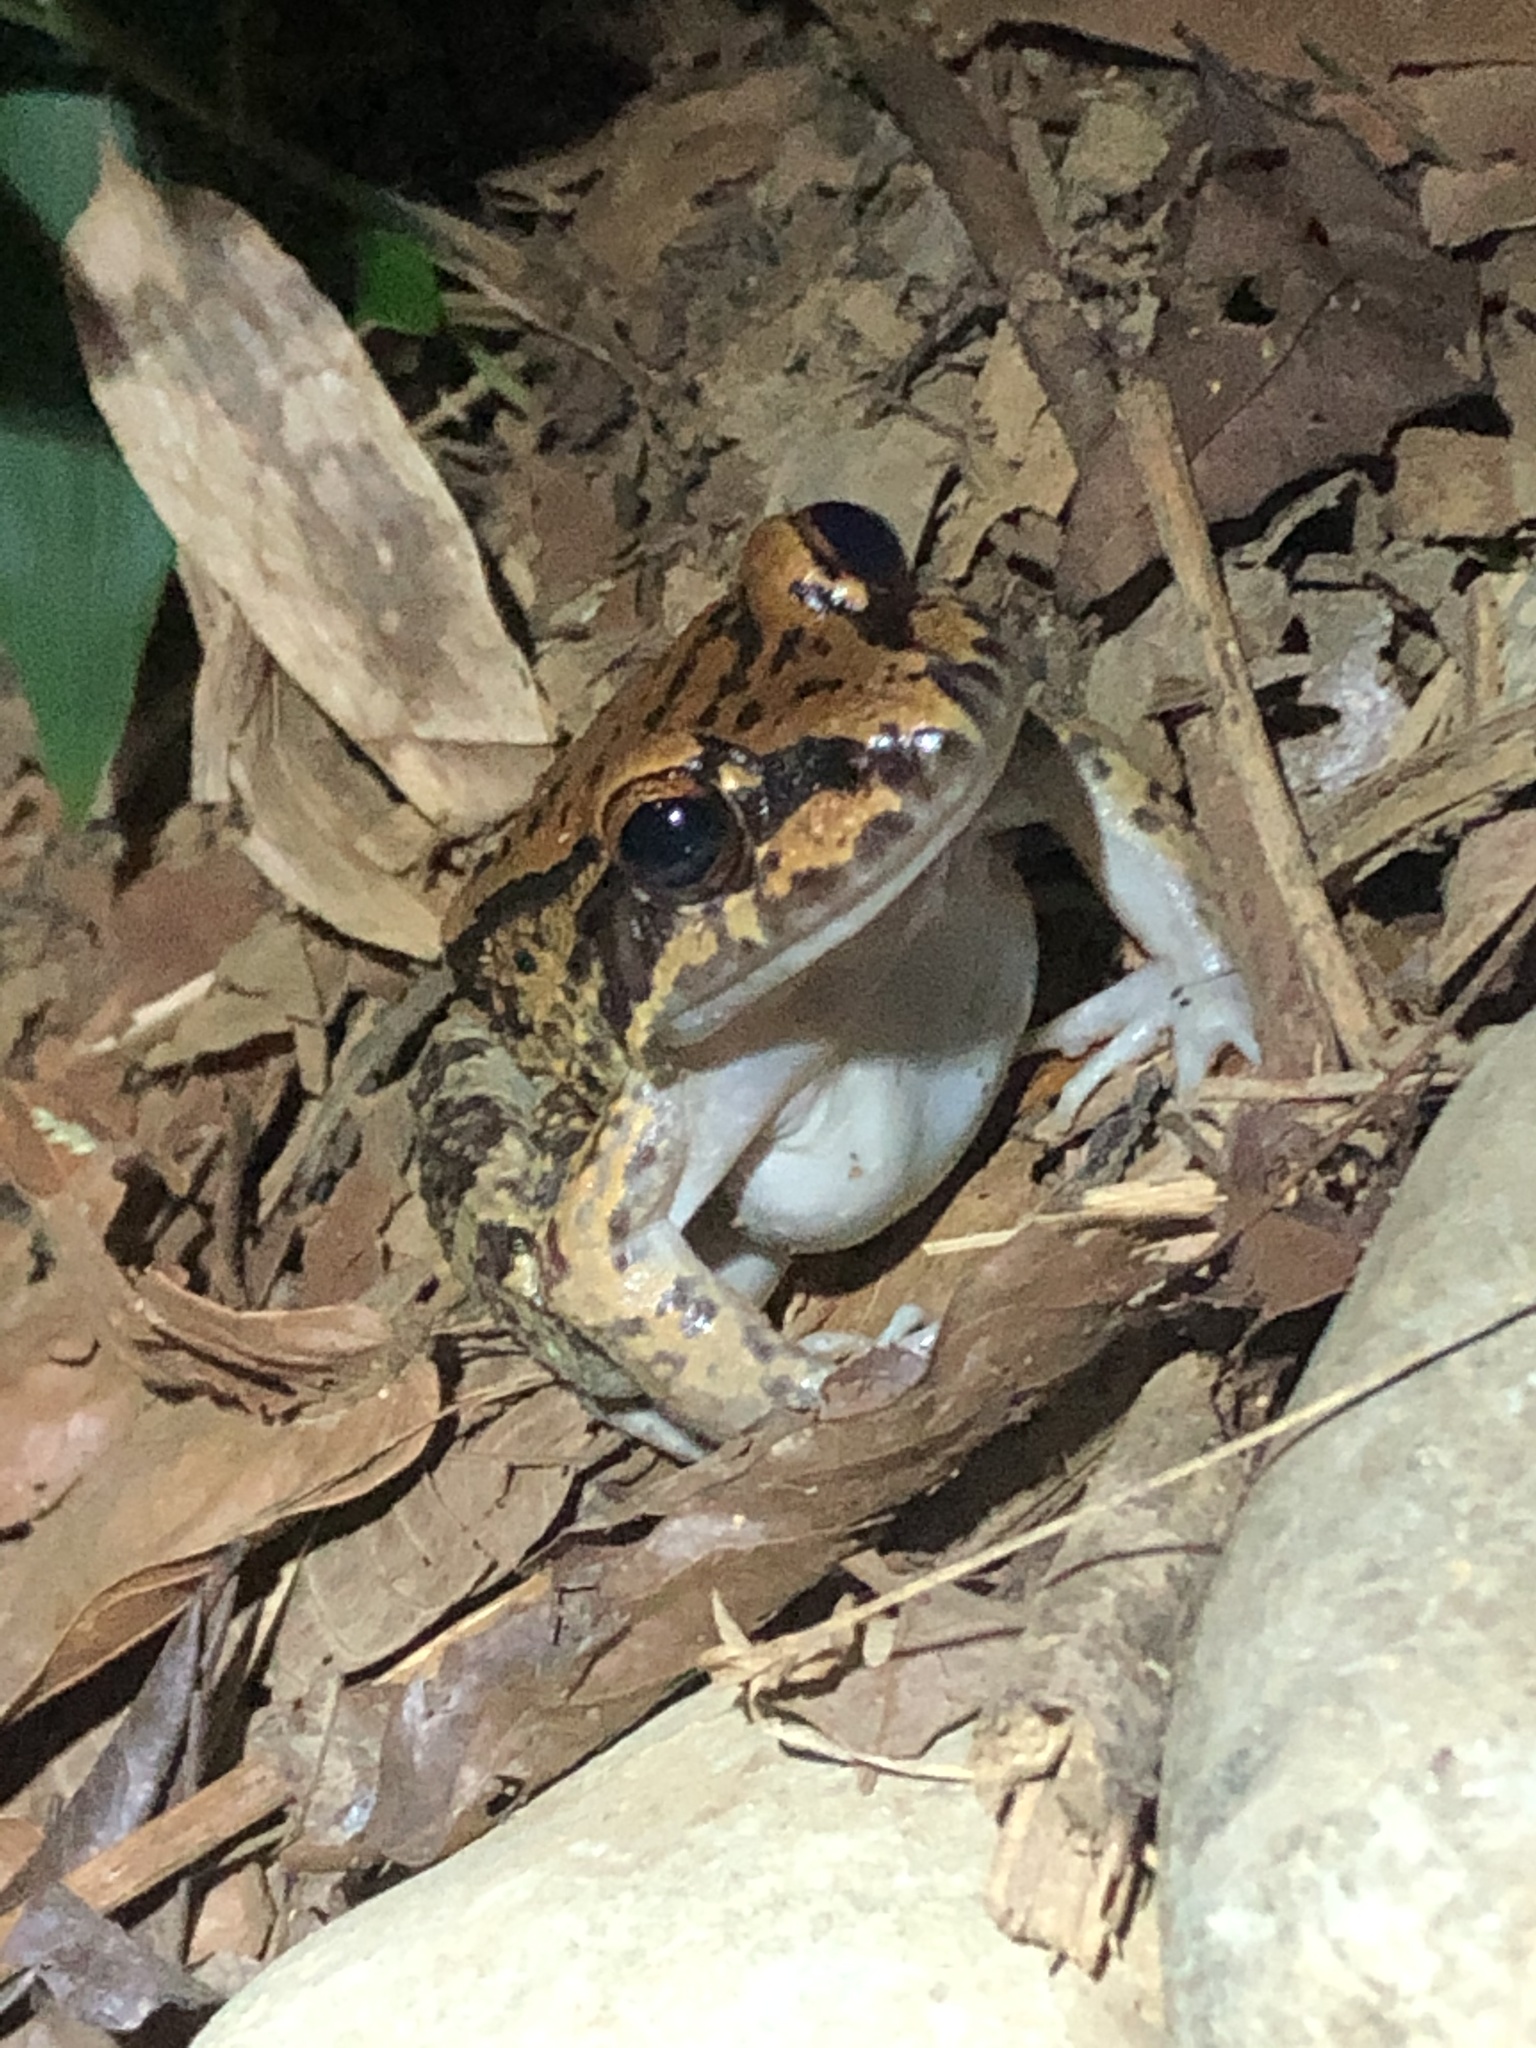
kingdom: Animalia
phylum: Chordata
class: Amphibia
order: Anura
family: Leptodactylidae
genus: Leptodactylus
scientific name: Leptodactylus rhodonotus
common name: Peru white-lipped frog
